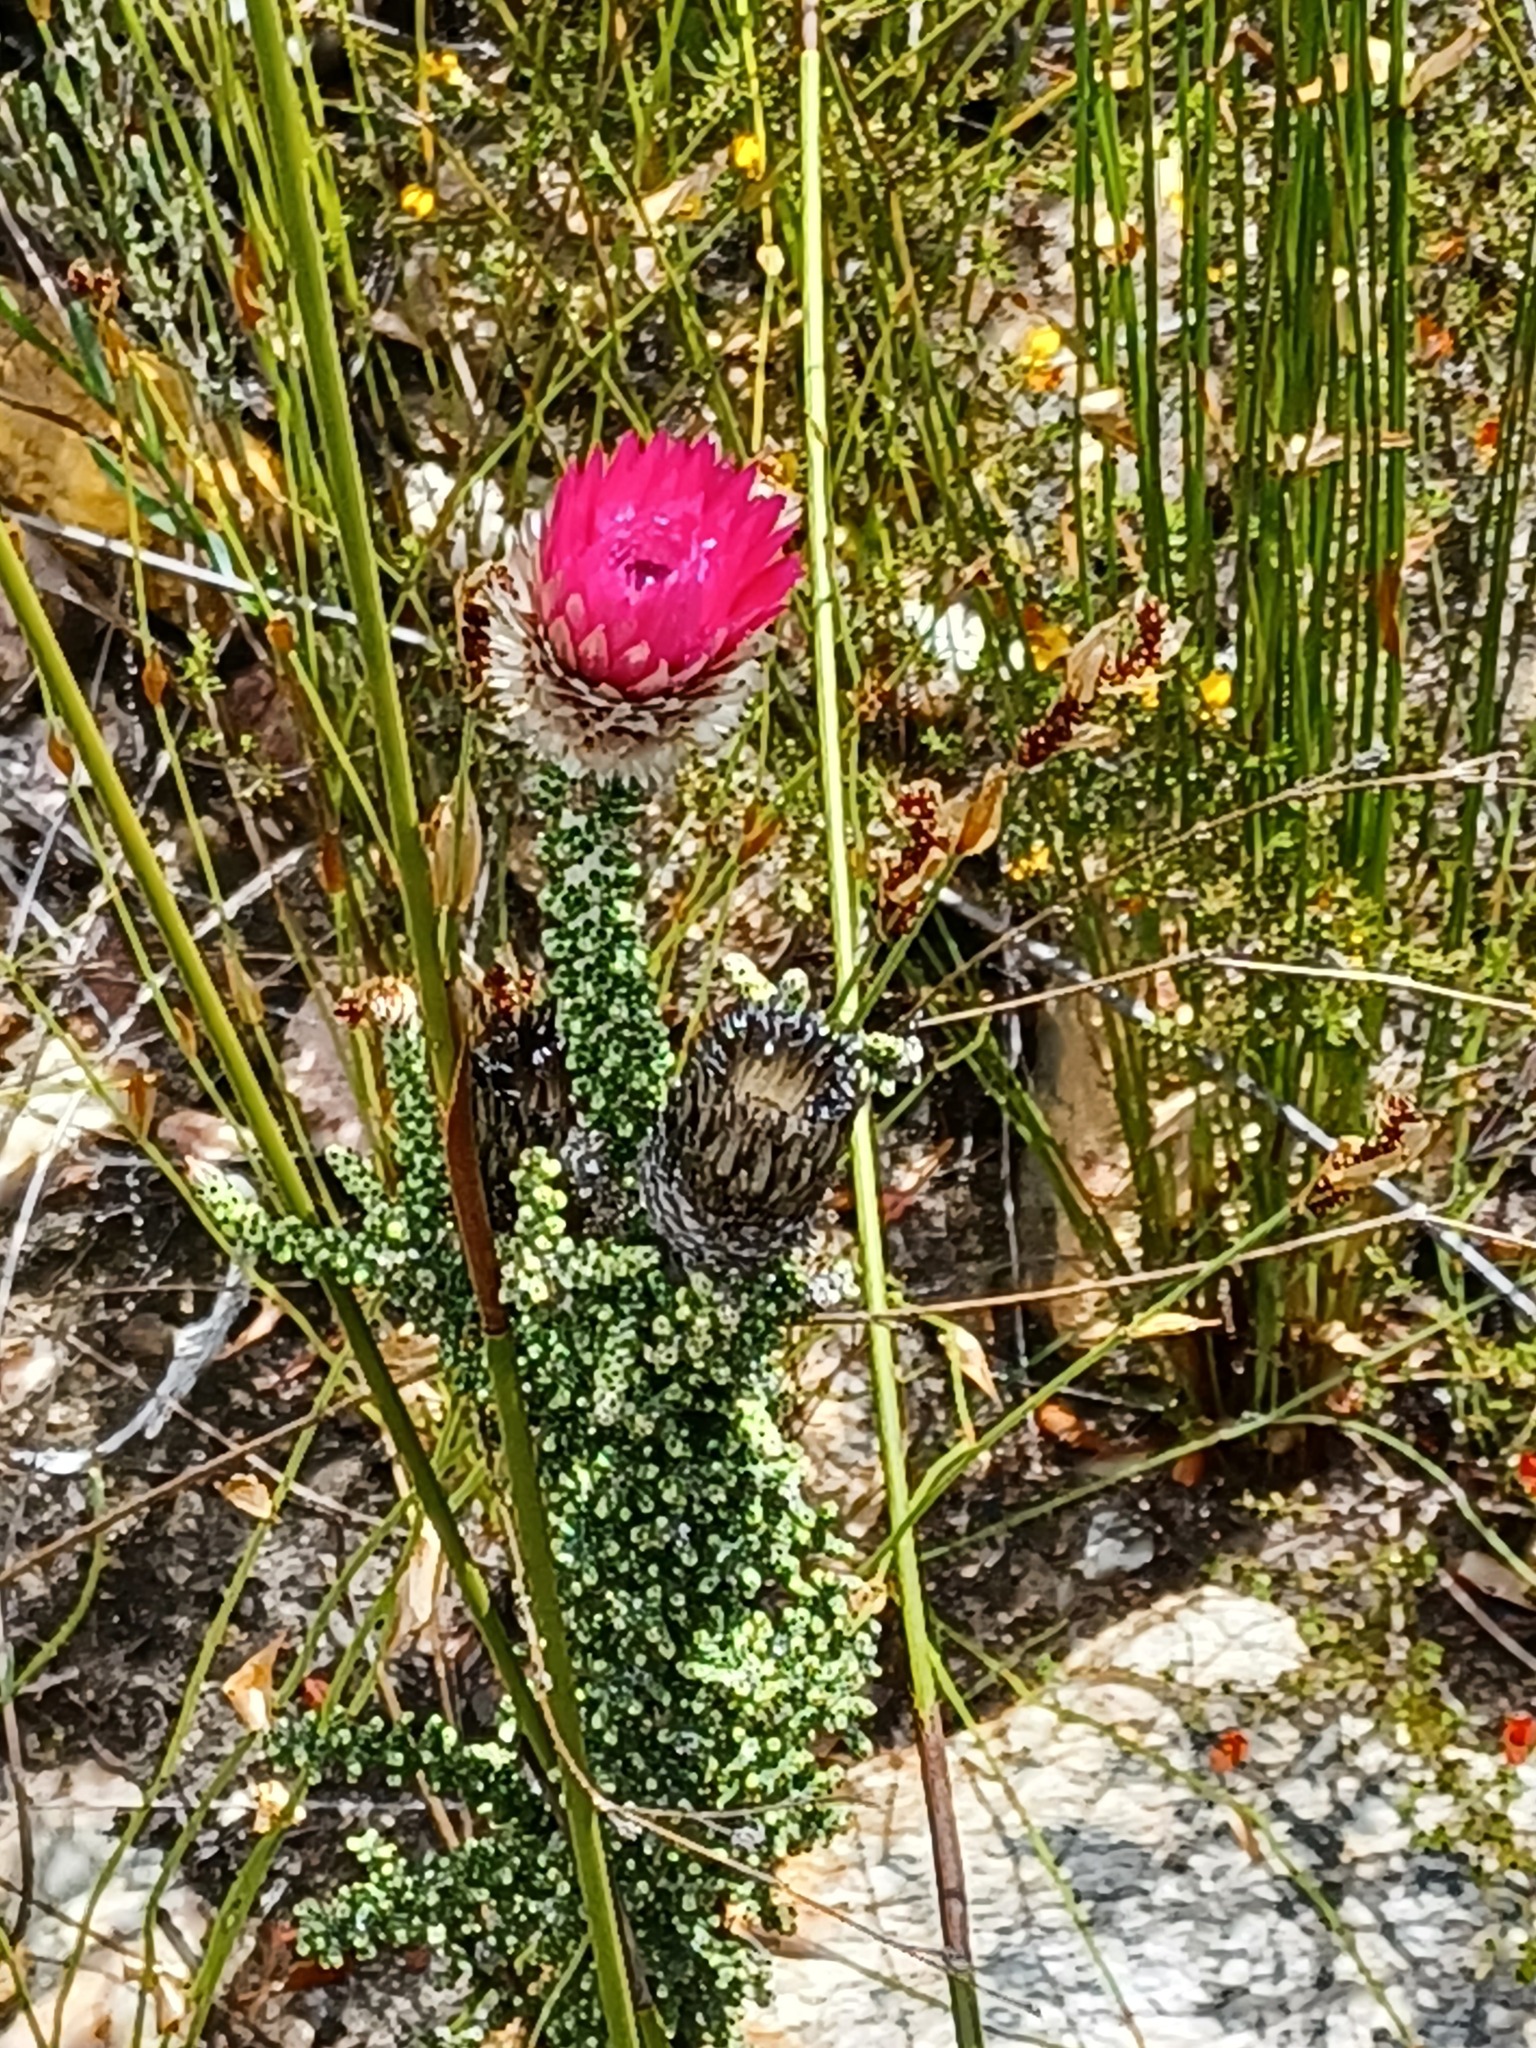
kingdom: Plantae
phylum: Tracheophyta
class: Magnoliopsida
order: Asterales
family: Asteraceae
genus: Phaenocoma
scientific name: Phaenocoma prolifera
